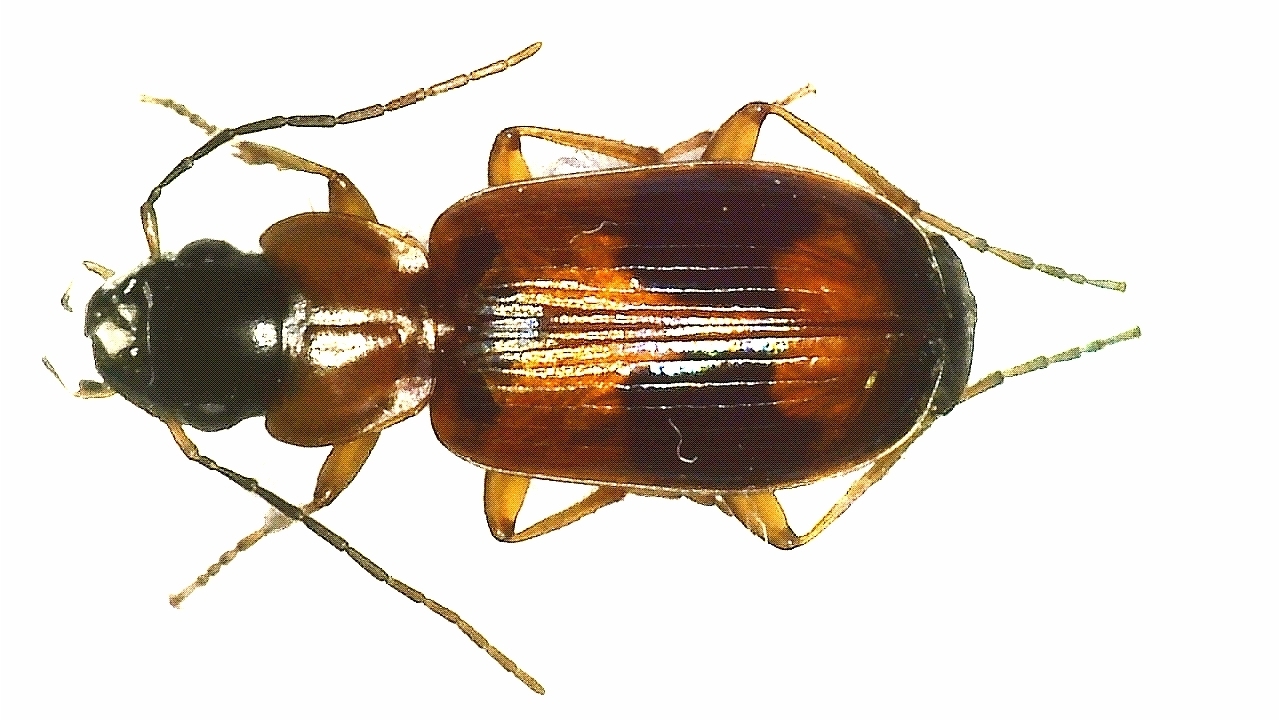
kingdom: Animalia
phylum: Arthropoda
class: Insecta
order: Coleoptera
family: Carabidae
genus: Badister
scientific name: Badister unipustulatus
